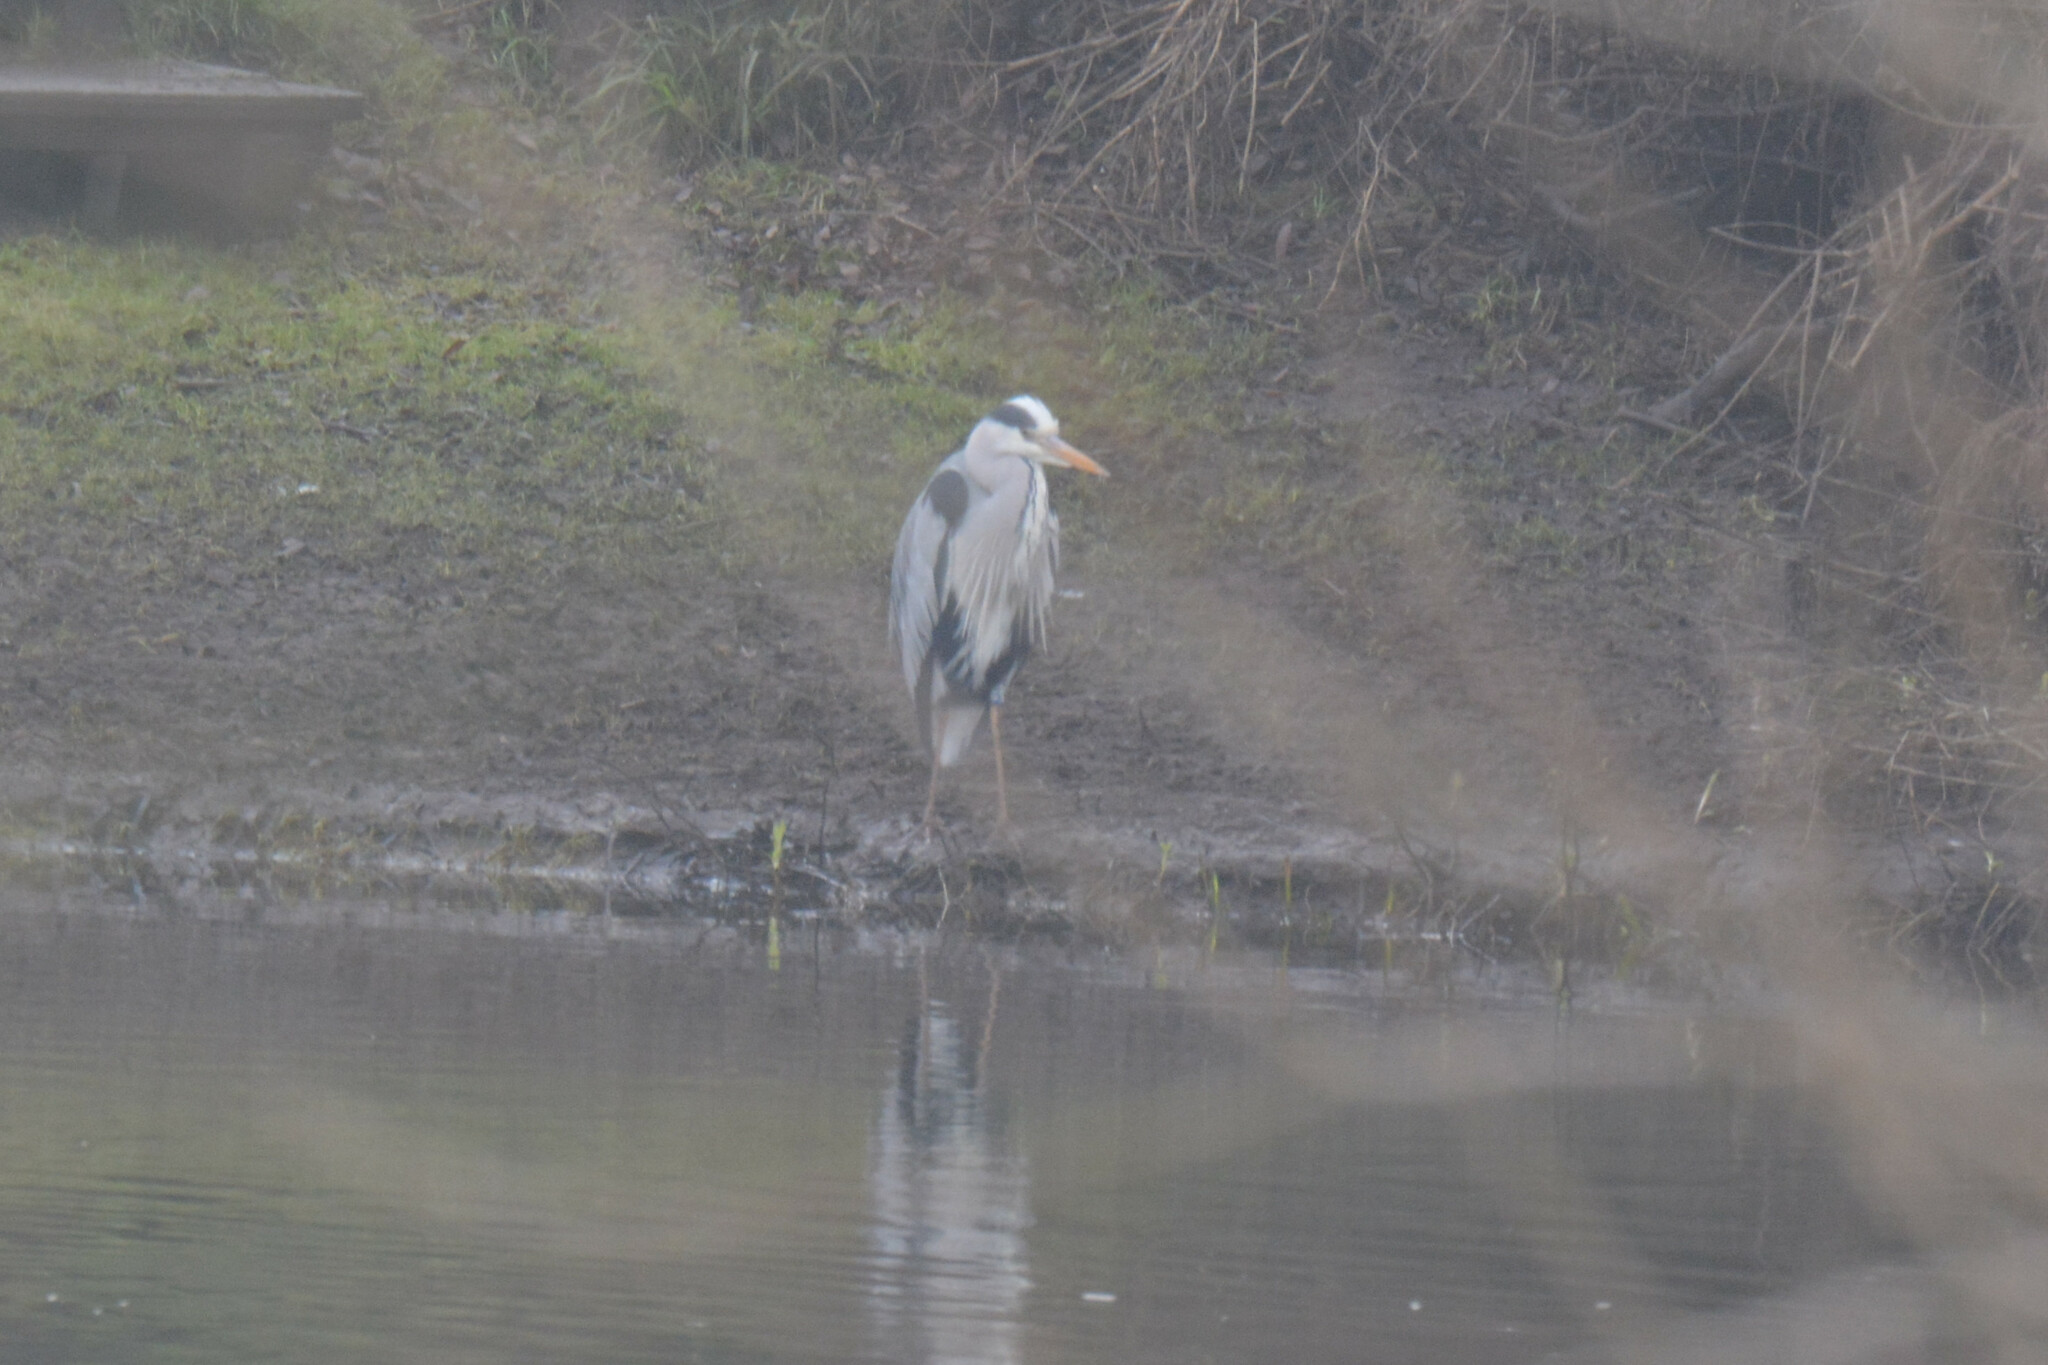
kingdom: Animalia
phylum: Chordata
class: Aves
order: Pelecaniformes
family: Ardeidae
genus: Ardea
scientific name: Ardea cinerea
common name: Grey heron
